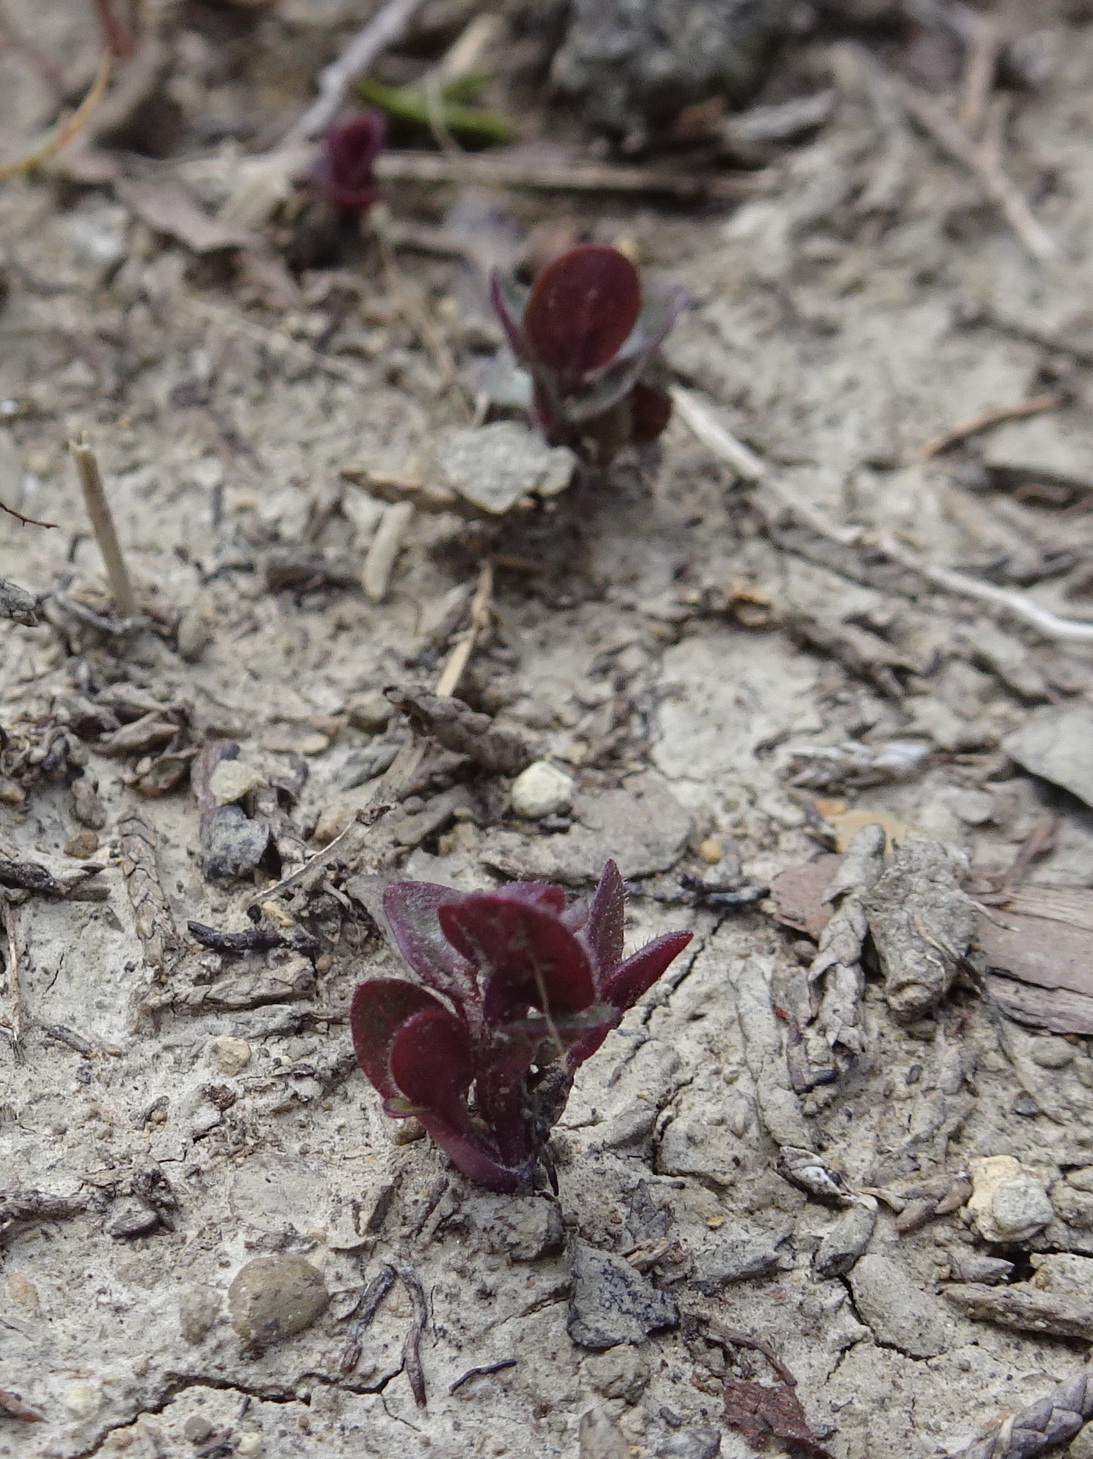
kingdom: Plantae
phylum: Tracheophyta
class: Magnoliopsida
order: Lamiales
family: Lamiaceae
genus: Scutellaria
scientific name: Scutellaria parvula
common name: Little scullcap
